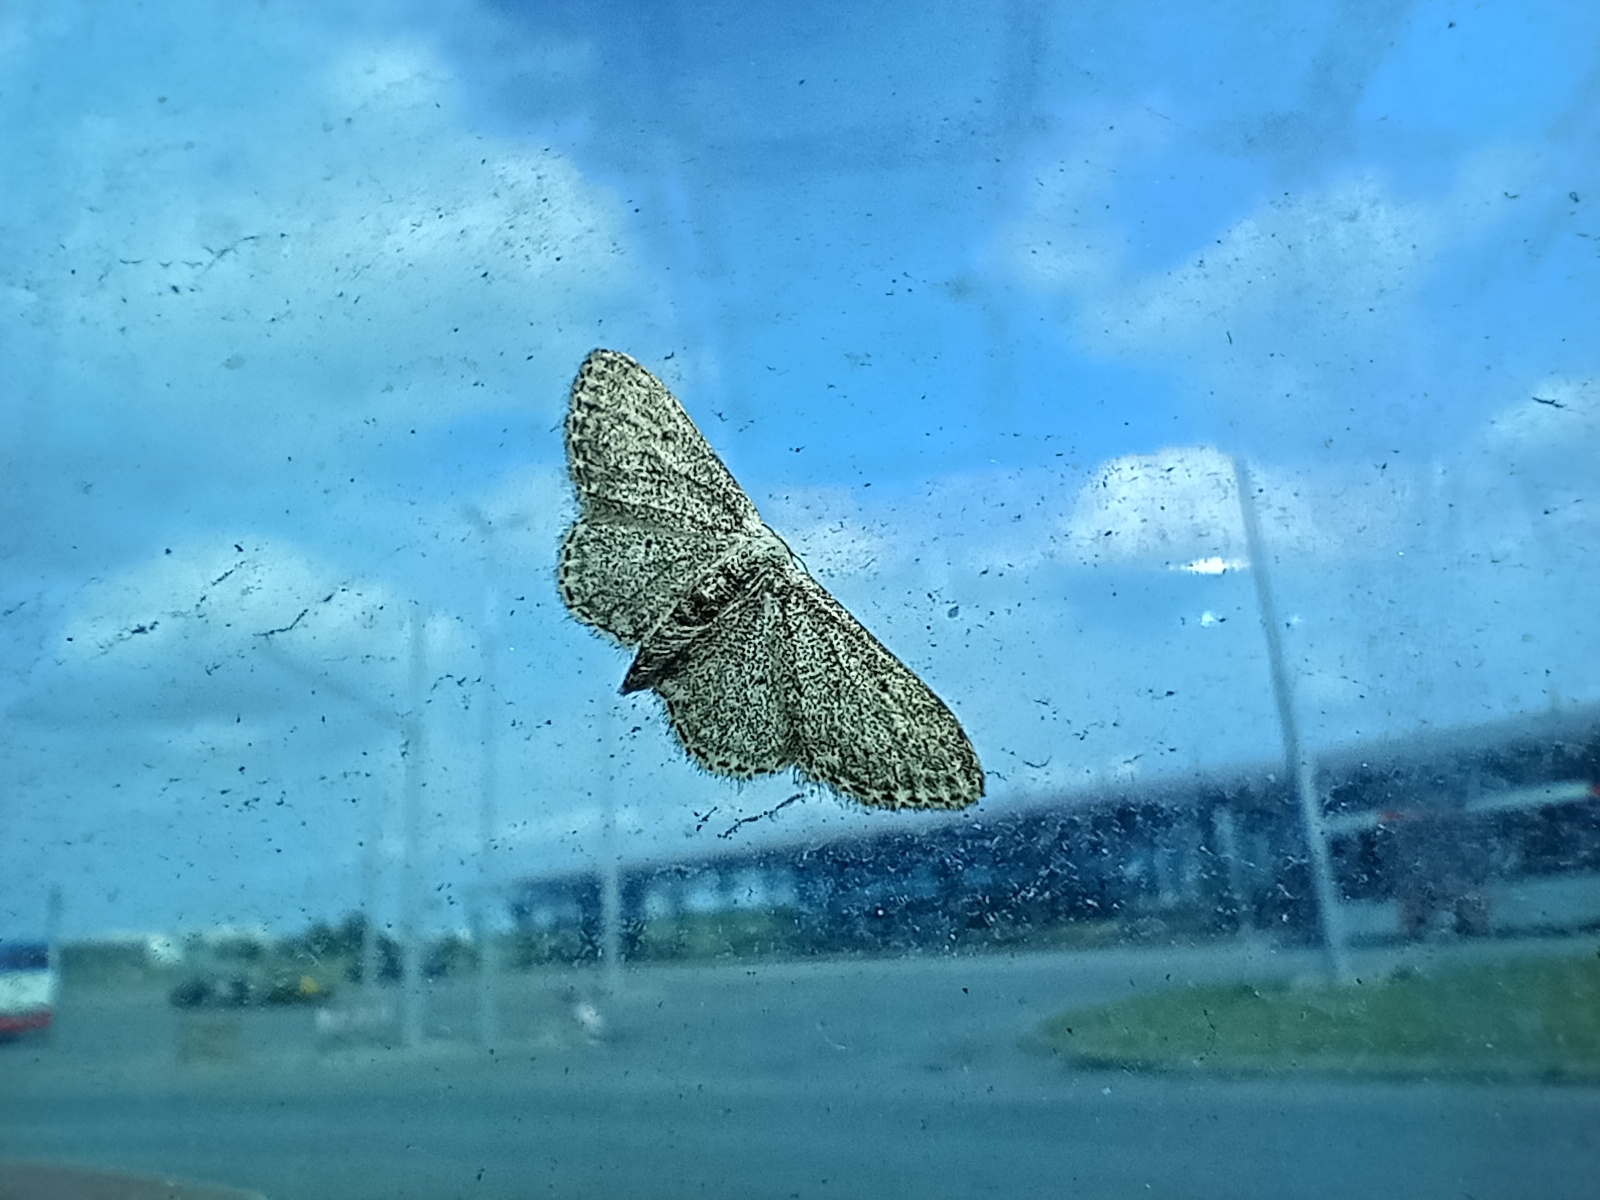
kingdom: Animalia
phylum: Arthropoda
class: Insecta
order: Lepidoptera
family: Geometridae
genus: Idaea
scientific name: Idaea seriata
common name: Small dusty wave
